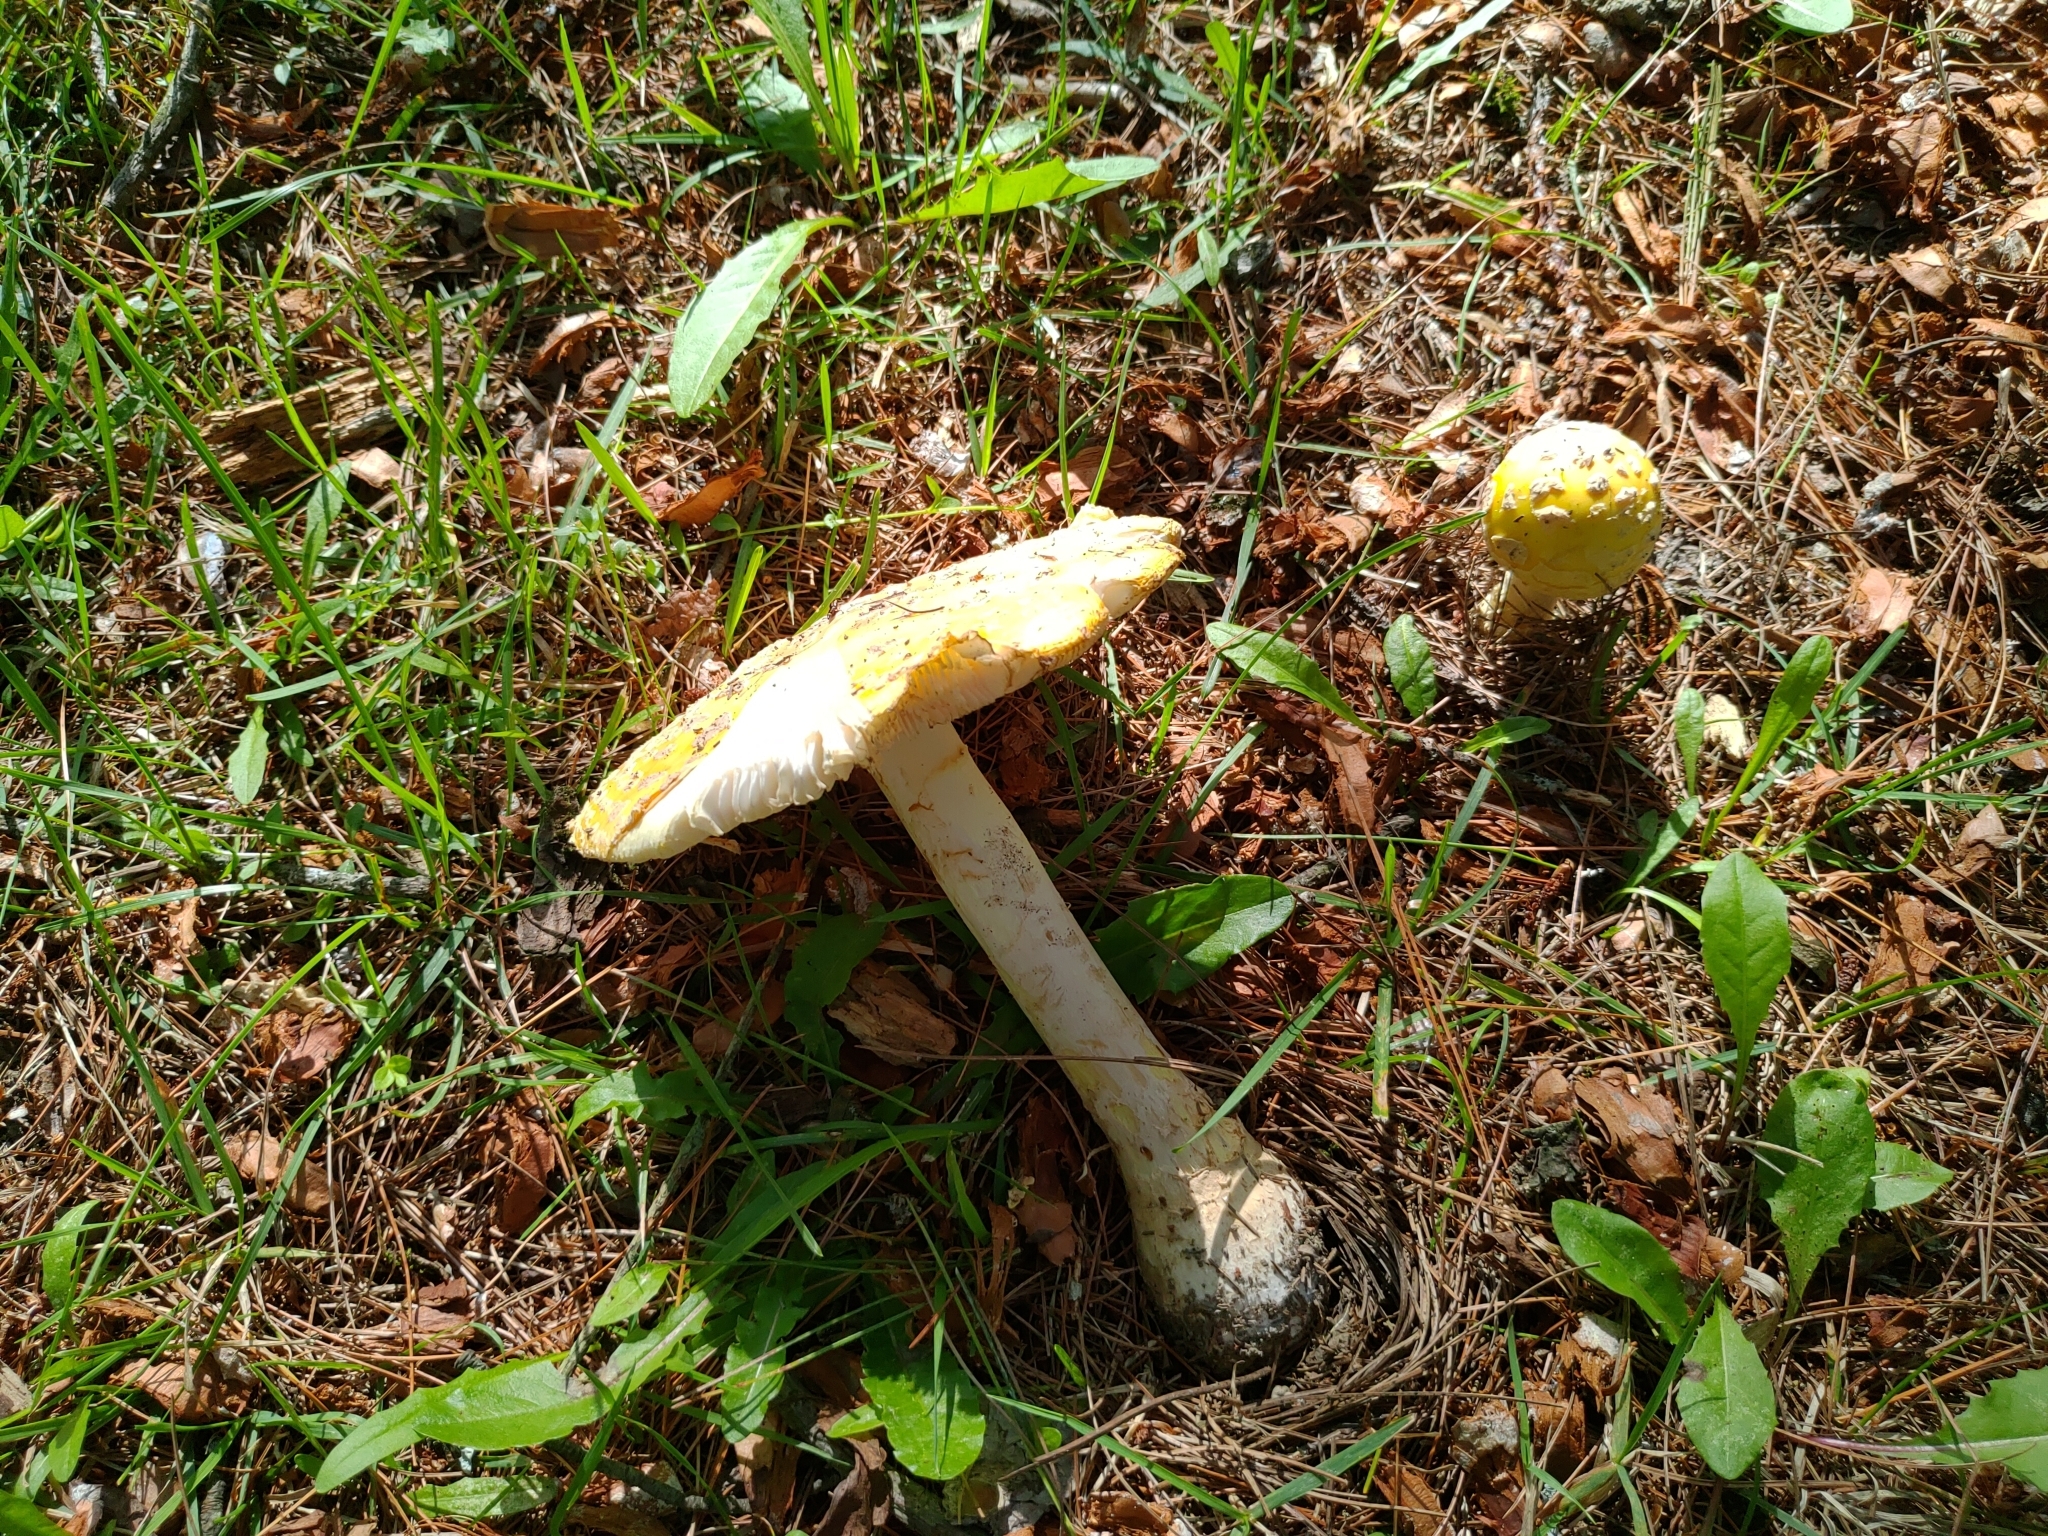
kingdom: Fungi
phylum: Basidiomycota
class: Agaricomycetes
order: Agaricales
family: Amanitaceae
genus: Amanita
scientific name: Amanita muscaria
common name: Fly agaric
